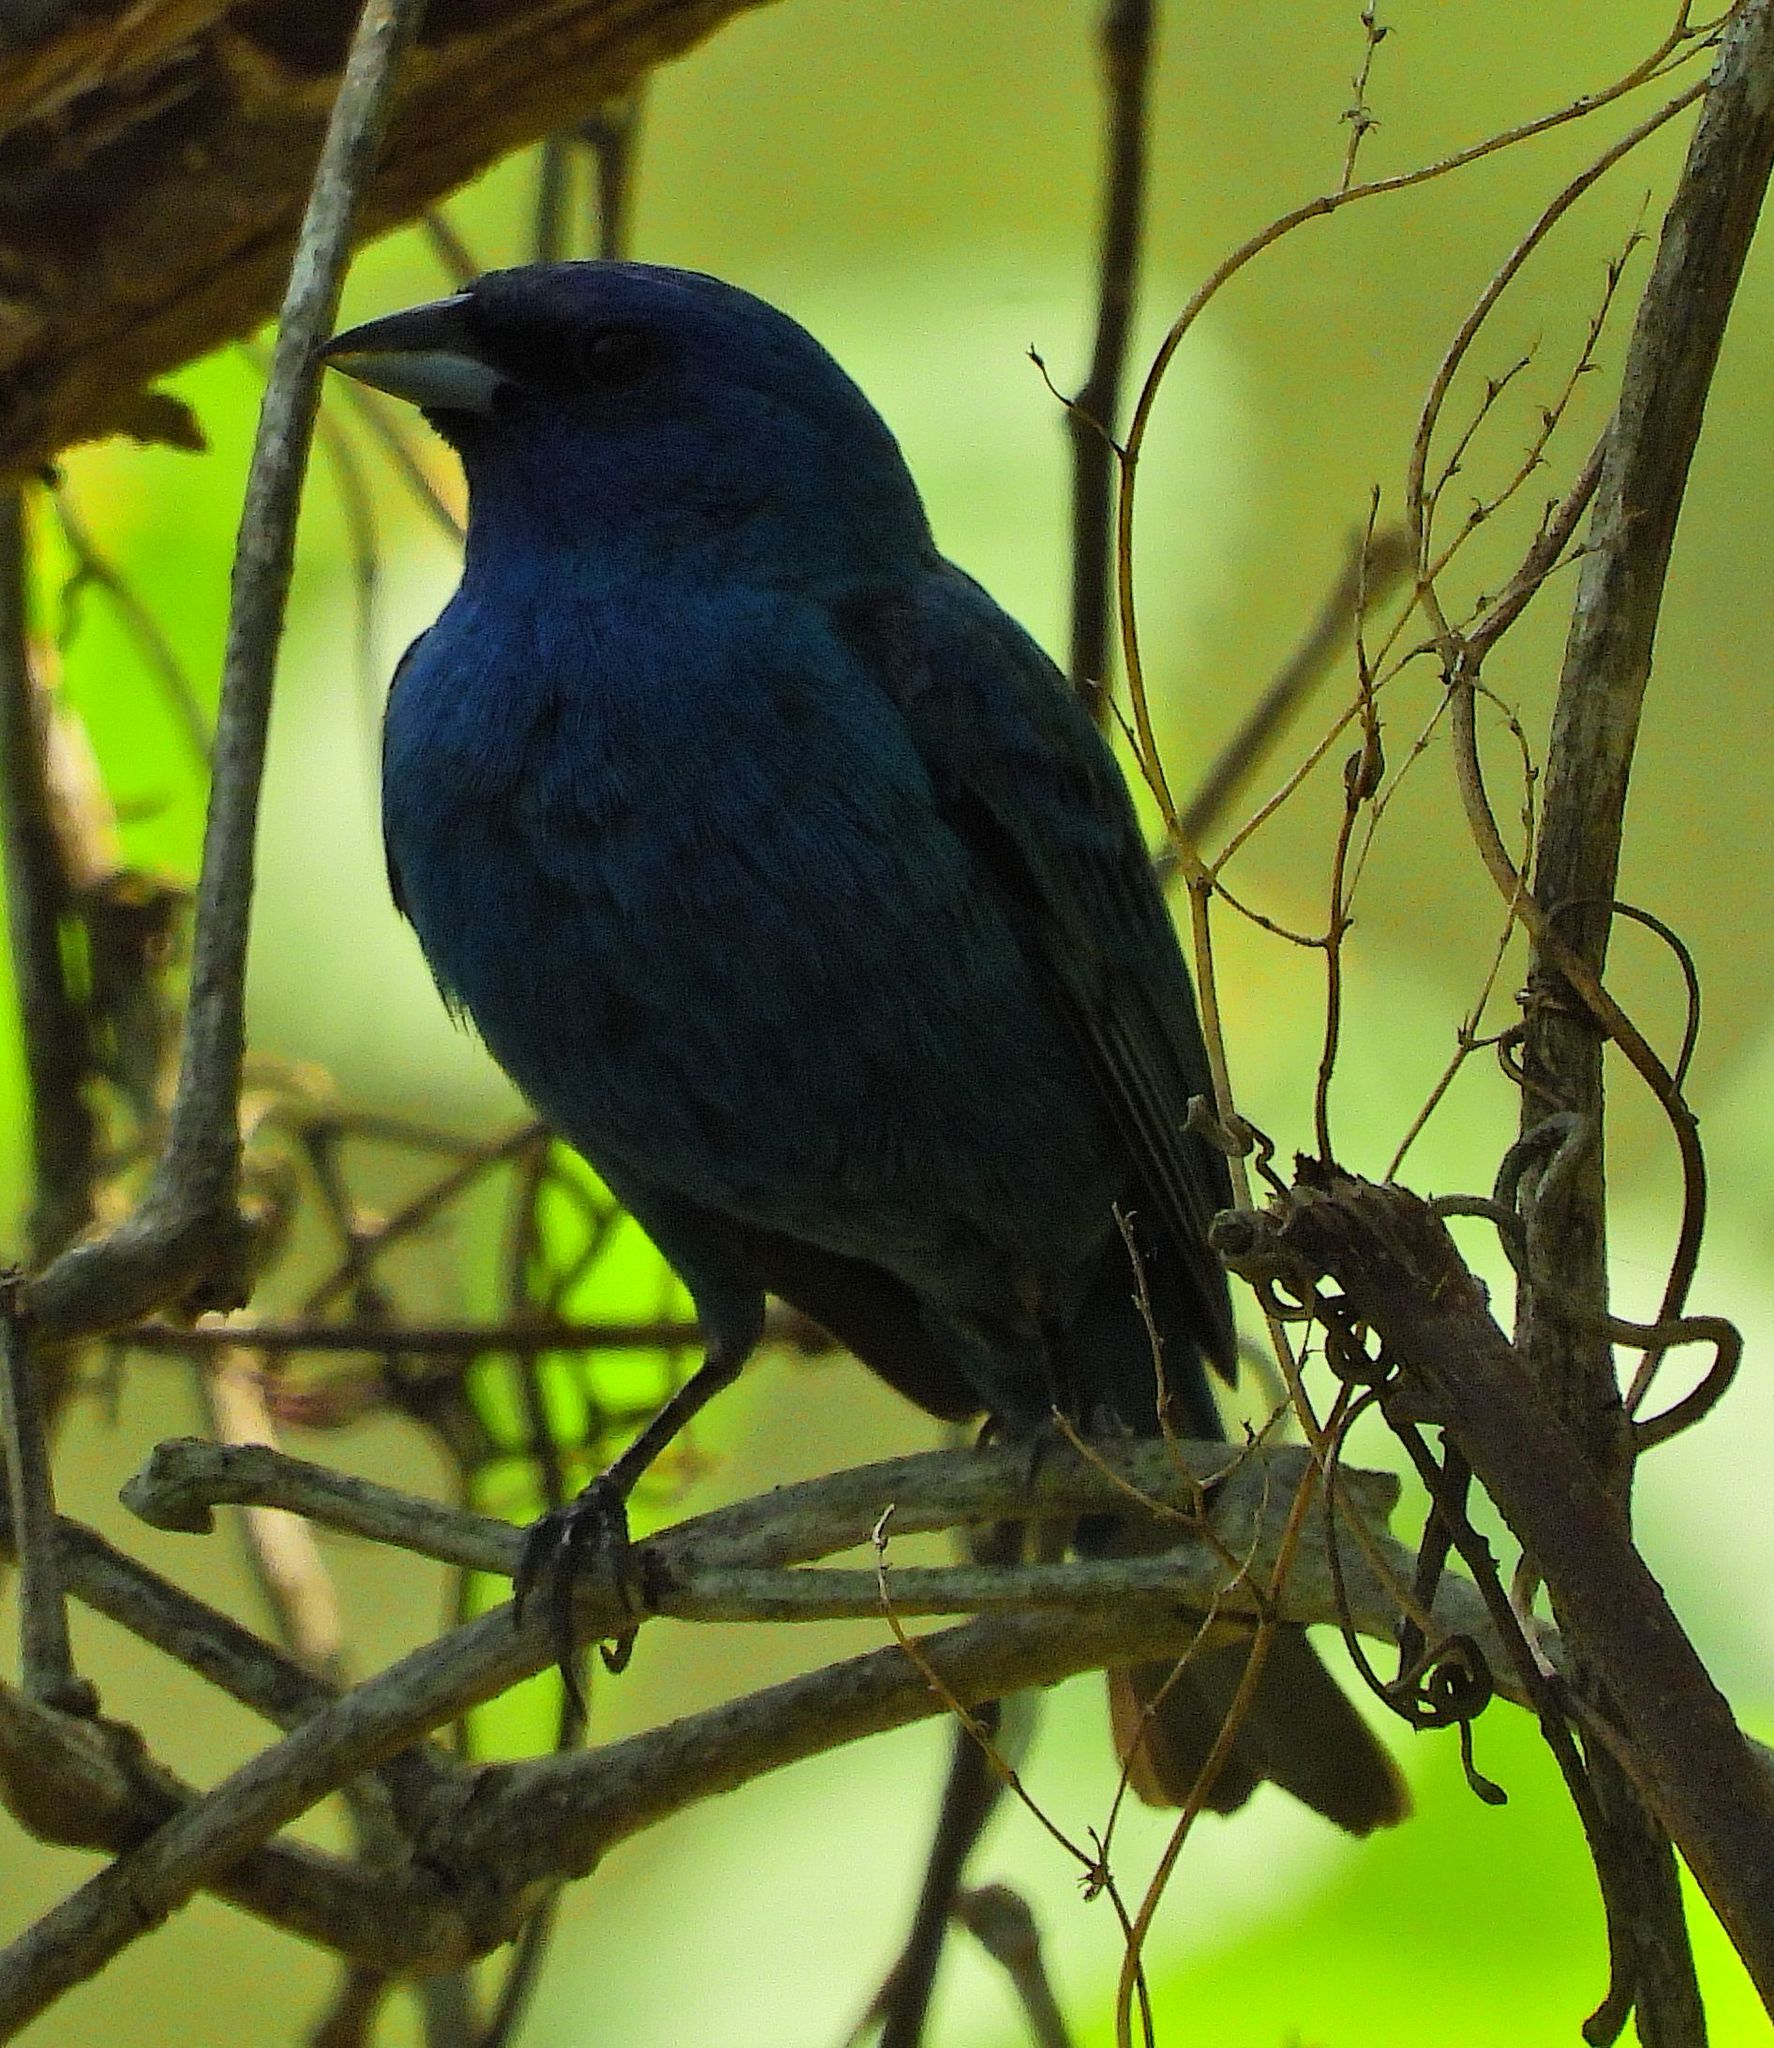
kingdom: Animalia
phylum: Chordata
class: Aves
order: Passeriformes
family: Cardinalidae
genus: Passerina
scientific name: Passerina cyanea
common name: Indigo bunting
